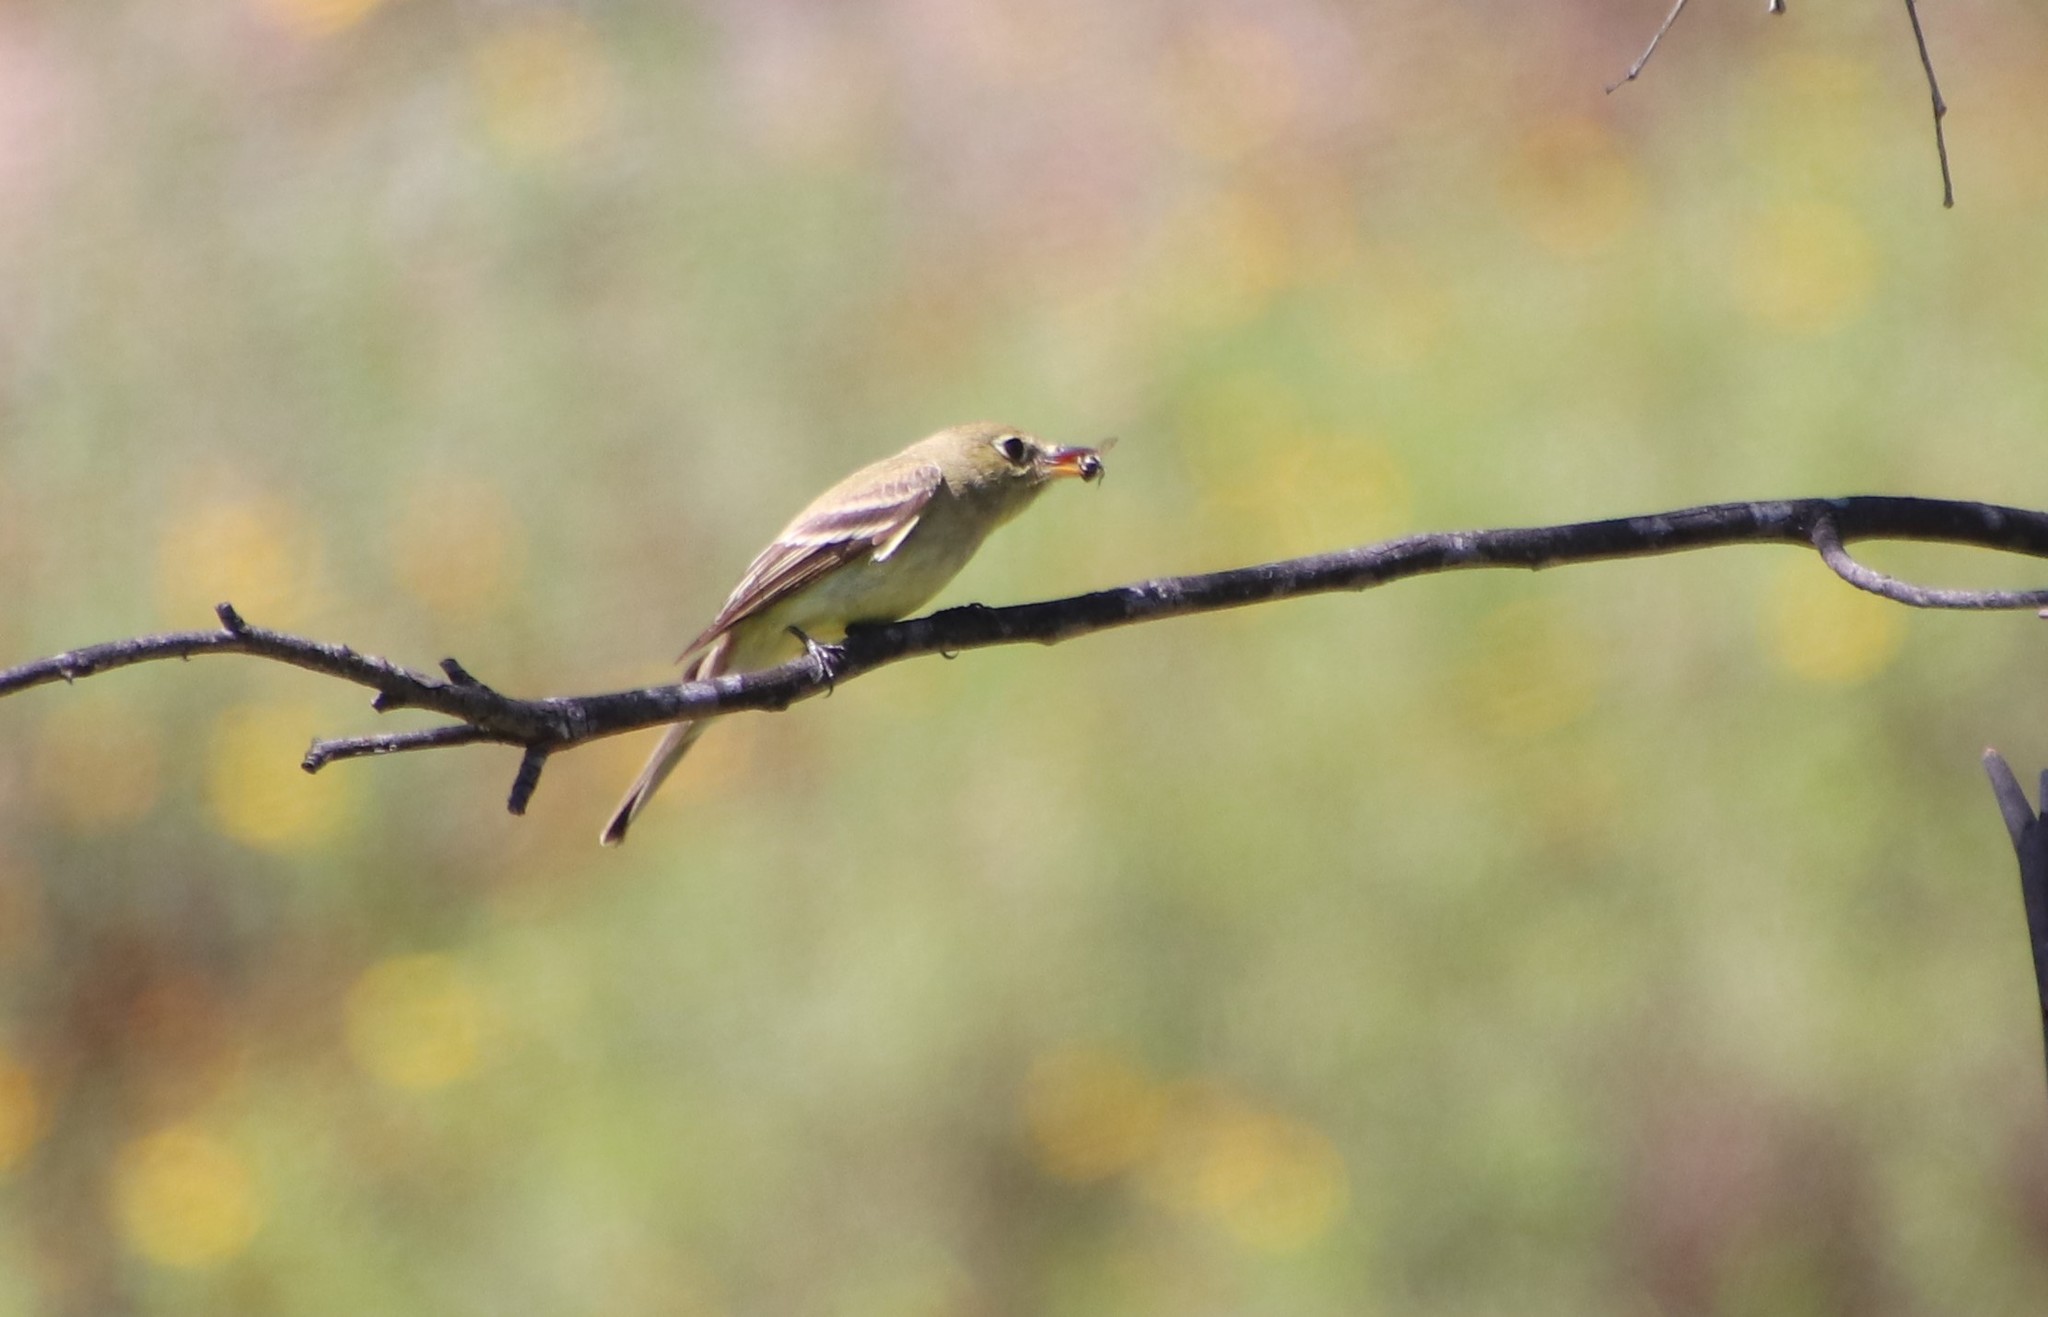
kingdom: Animalia
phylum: Chordata
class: Aves
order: Passeriformes
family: Tyrannidae
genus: Empidonax
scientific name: Empidonax difficilis
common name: Pacific-slope flycatcher
